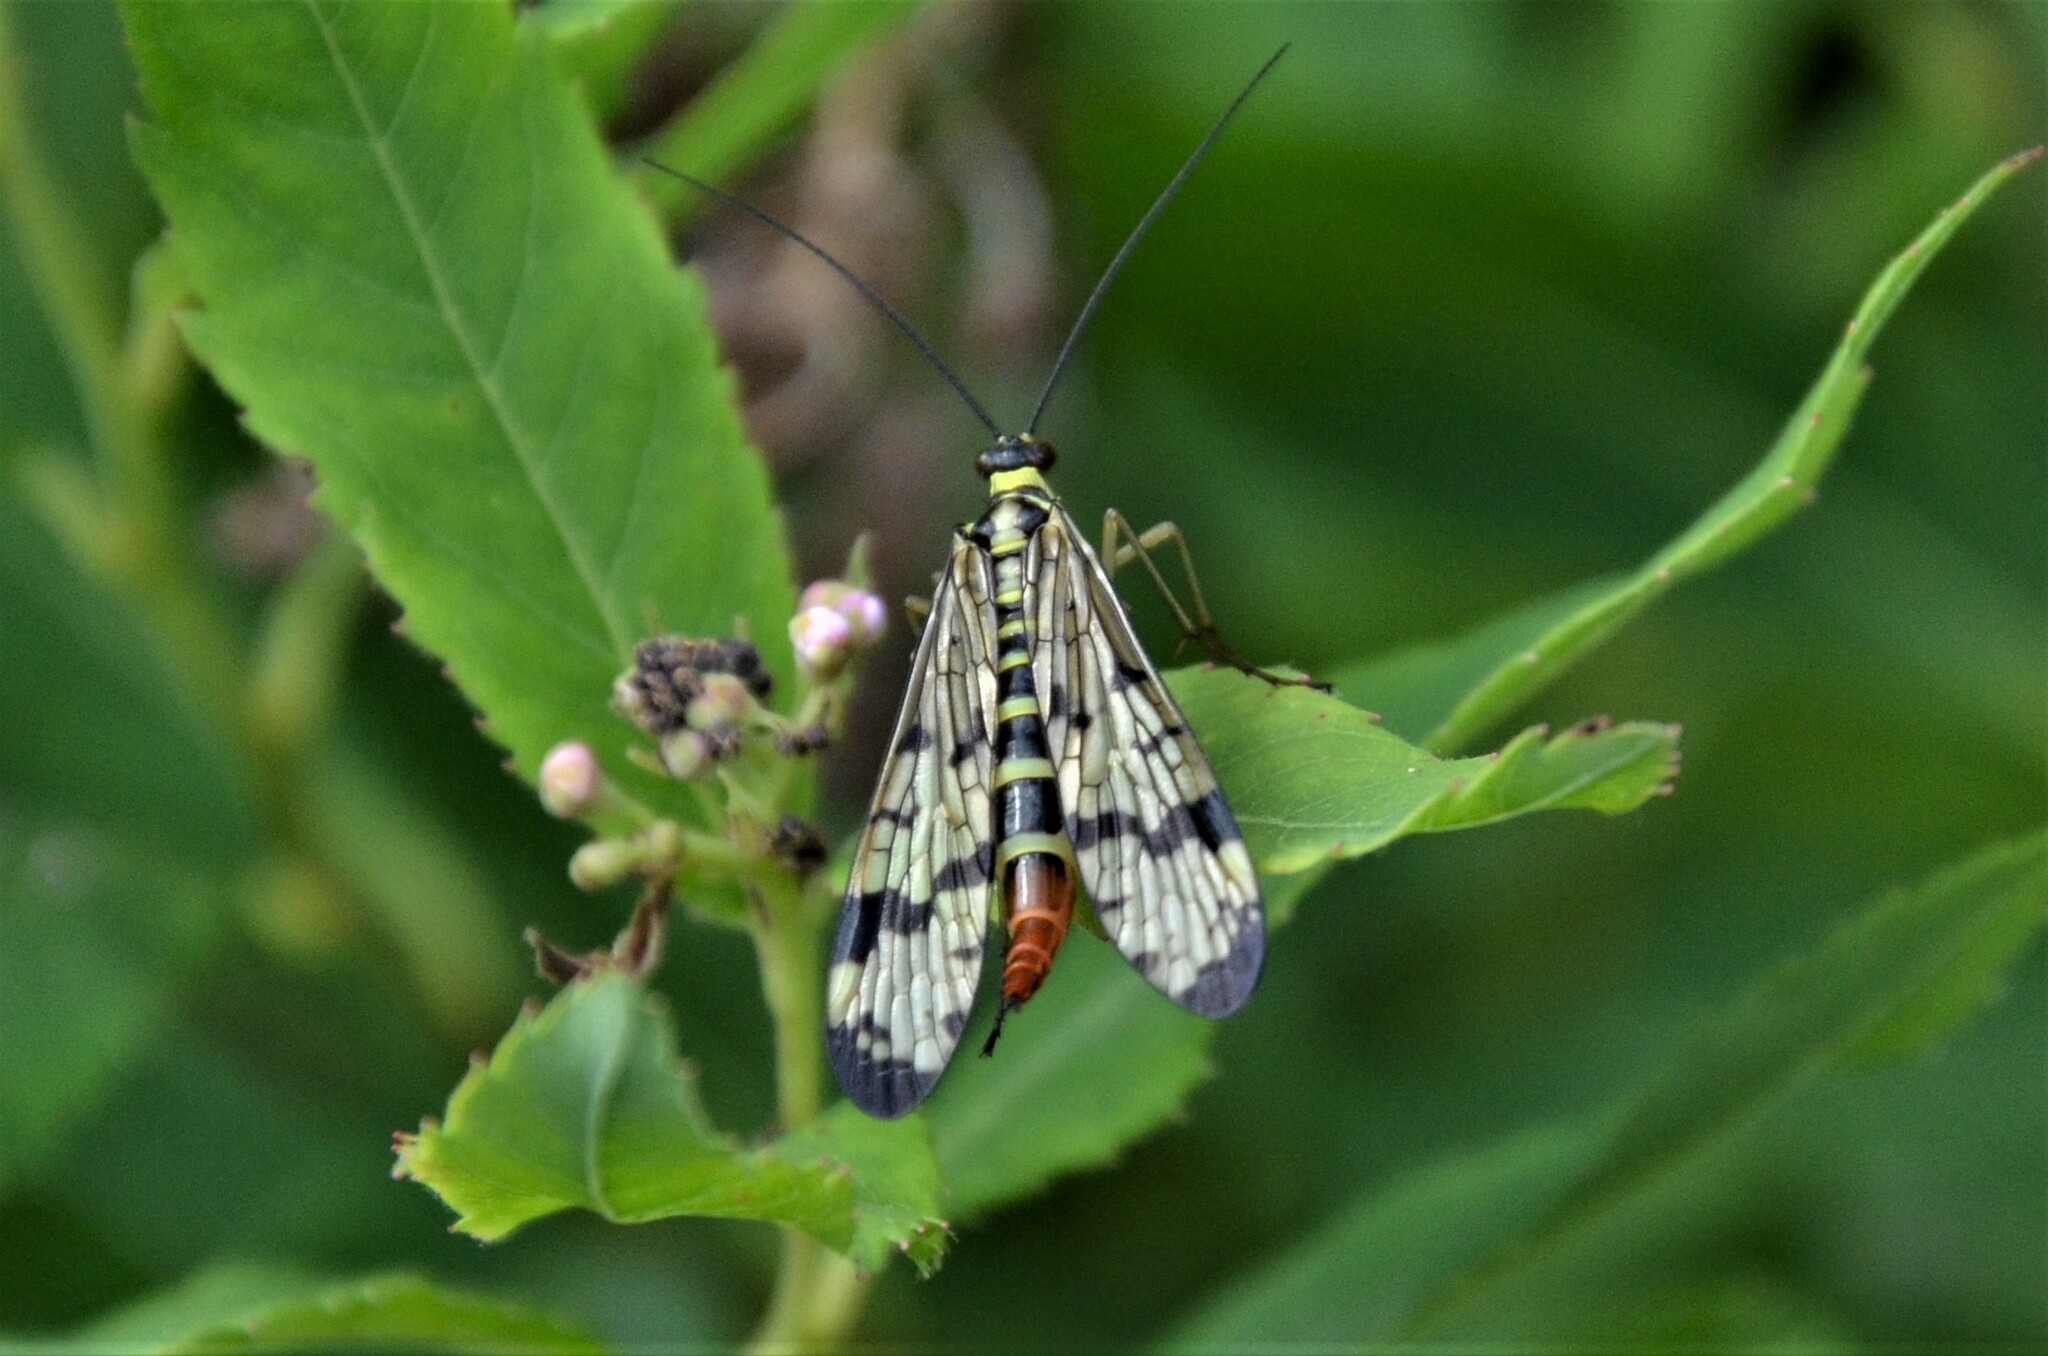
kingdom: Animalia
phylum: Arthropoda
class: Insecta
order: Mecoptera
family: Panorpidae
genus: Panorpa
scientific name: Panorpa communis
